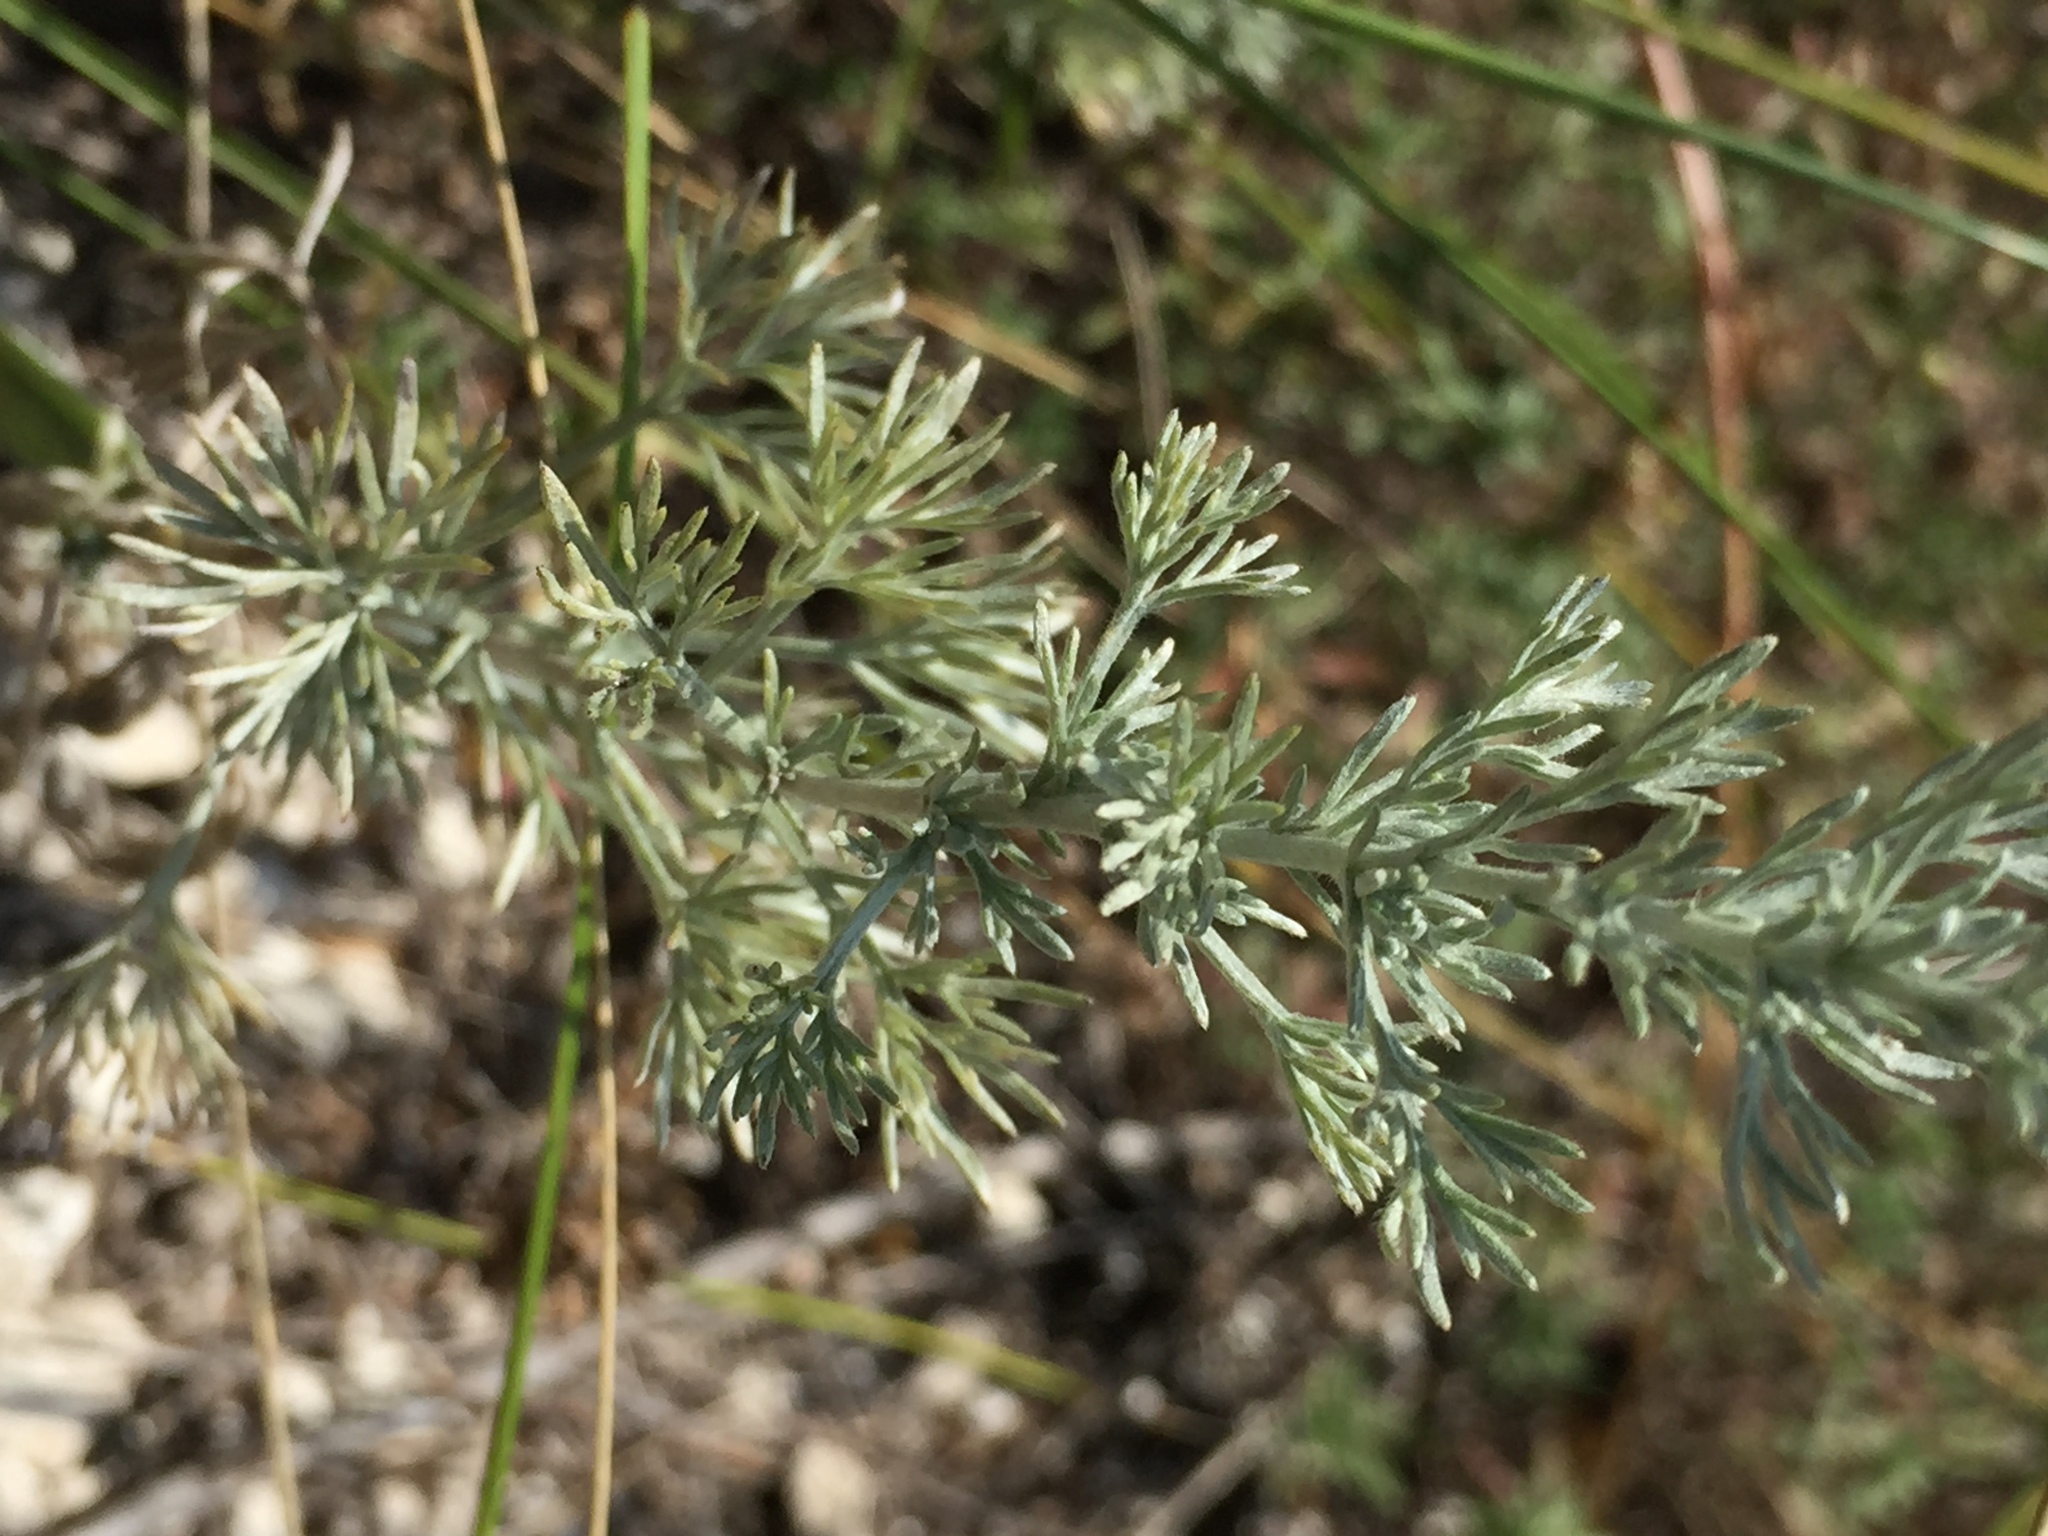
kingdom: Plantae
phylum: Tracheophyta
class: Magnoliopsida
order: Asterales
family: Asteraceae
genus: Artemisia
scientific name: Artemisia austriaca
